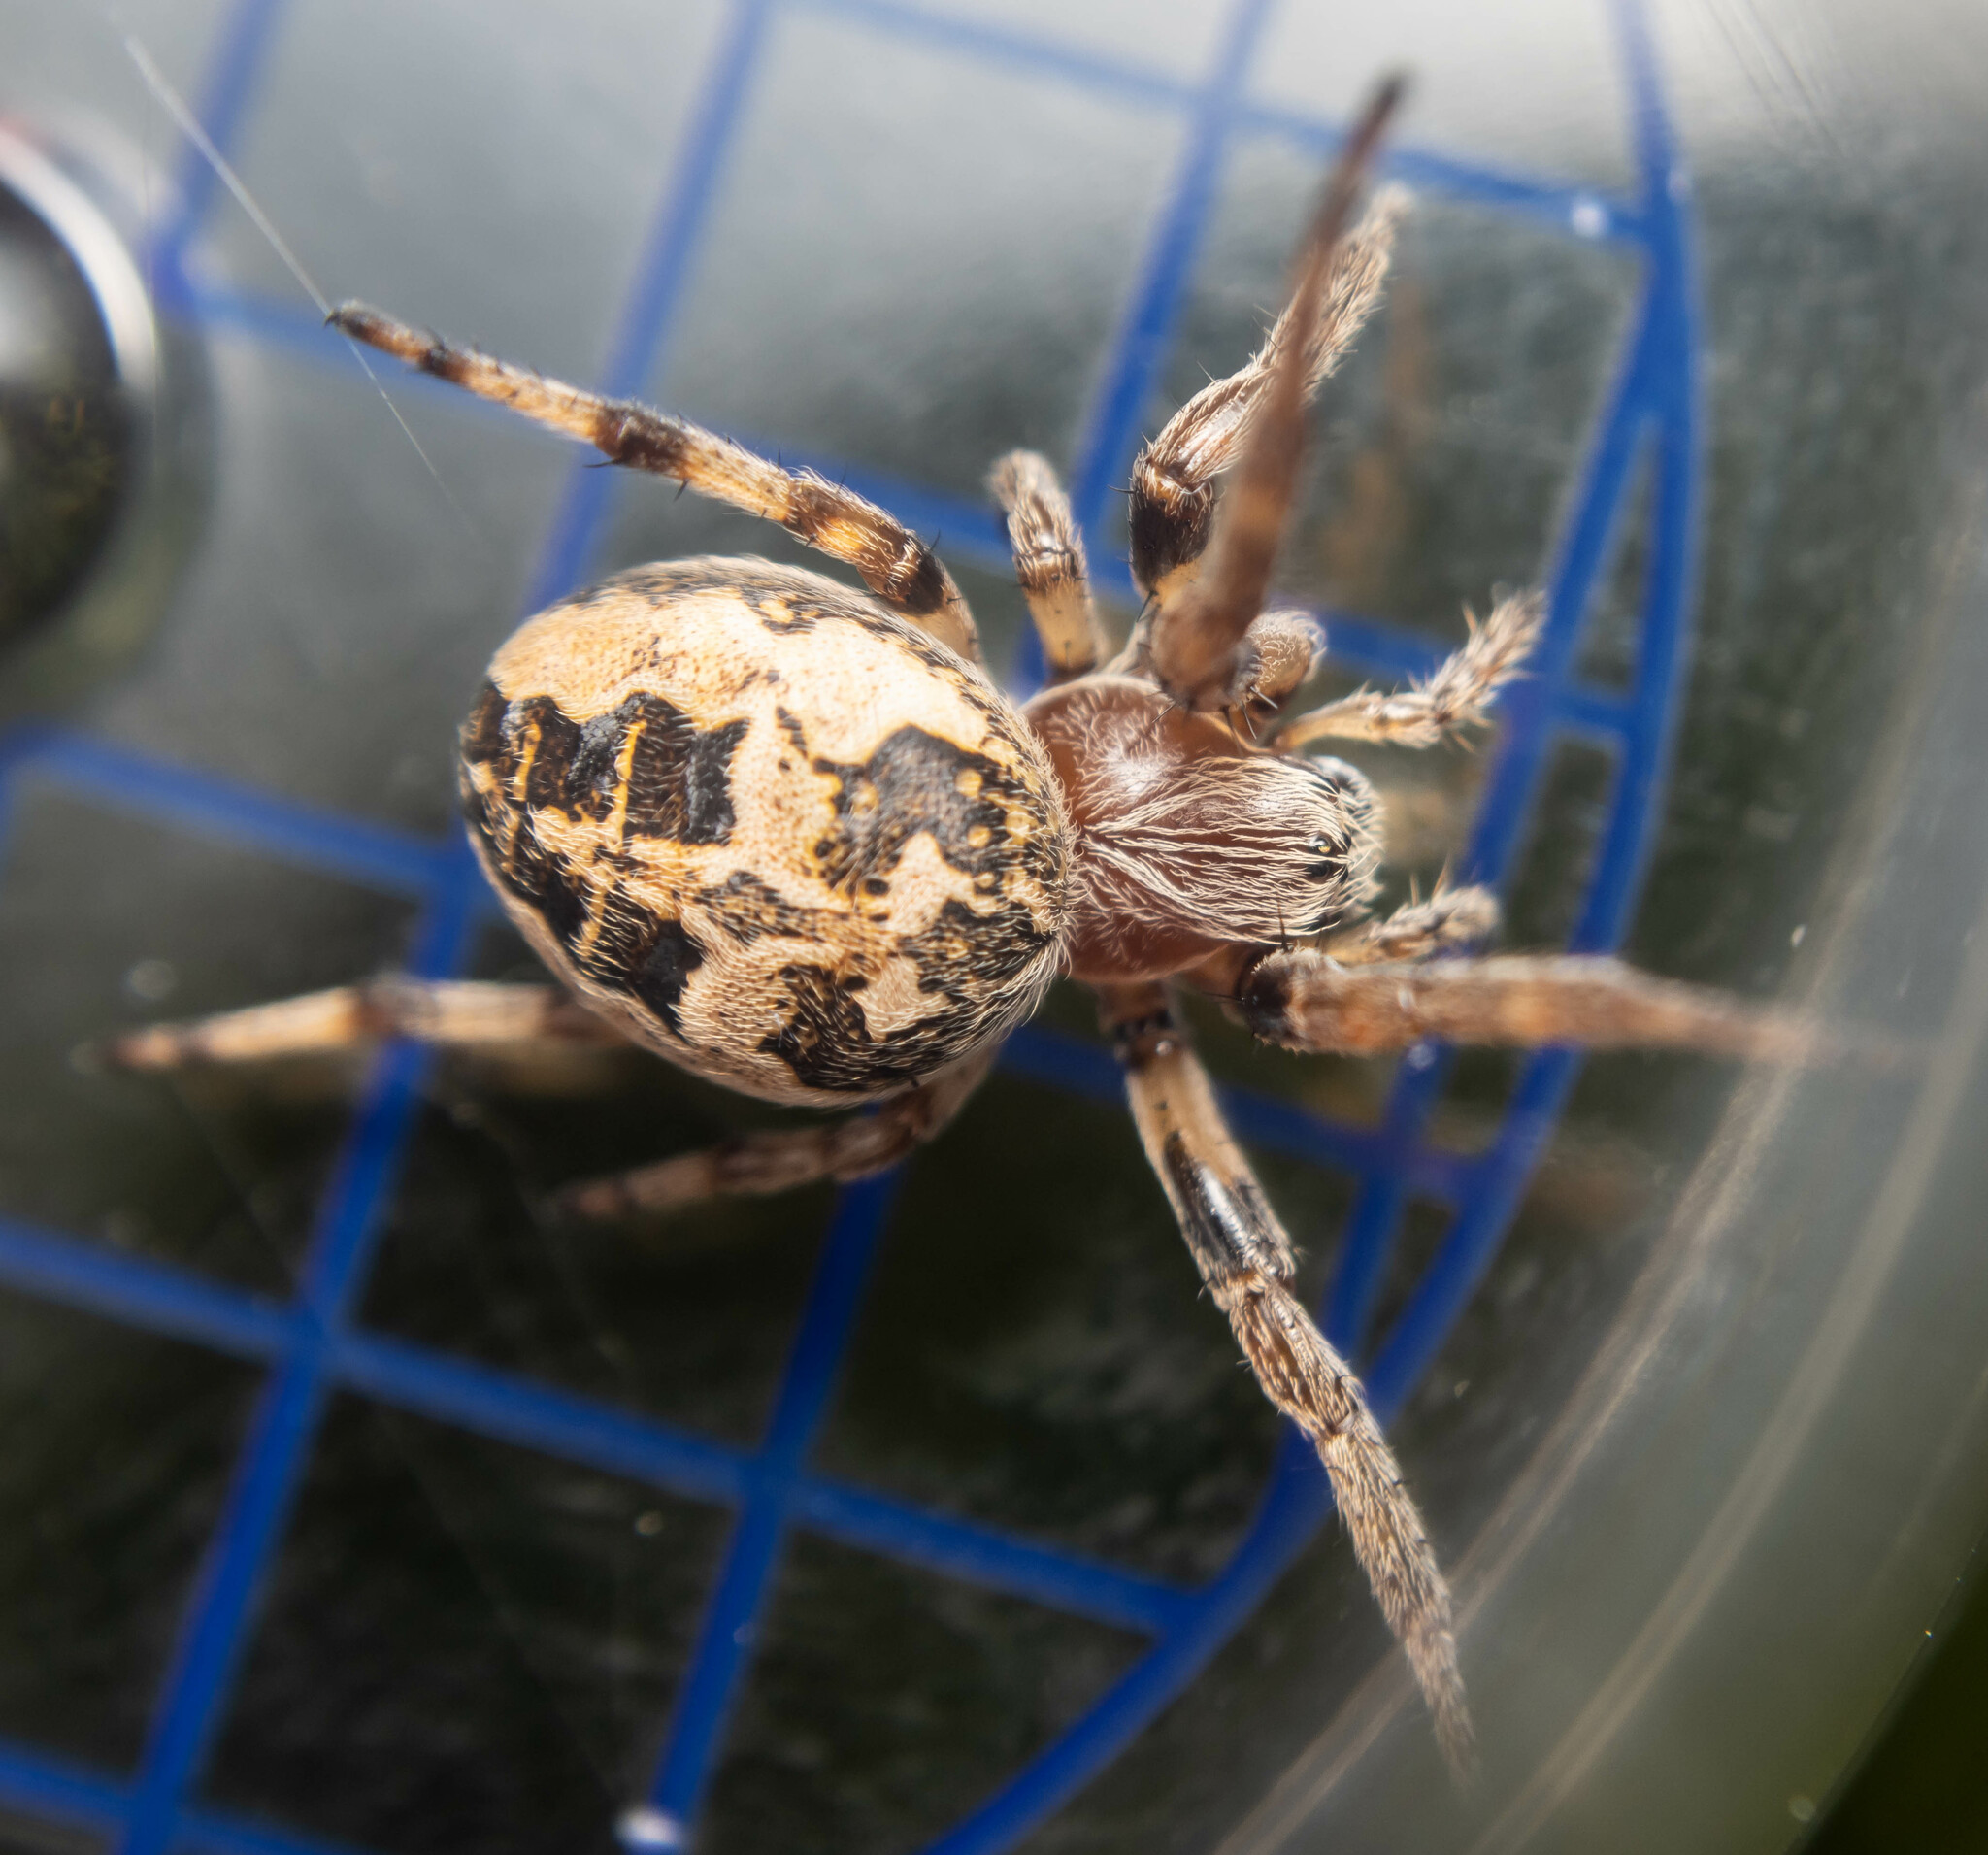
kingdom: Animalia
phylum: Arthropoda
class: Arachnida
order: Araneae
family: Araneidae
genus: Larinioides
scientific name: Larinioides cornutus
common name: Furrow orbweaver
